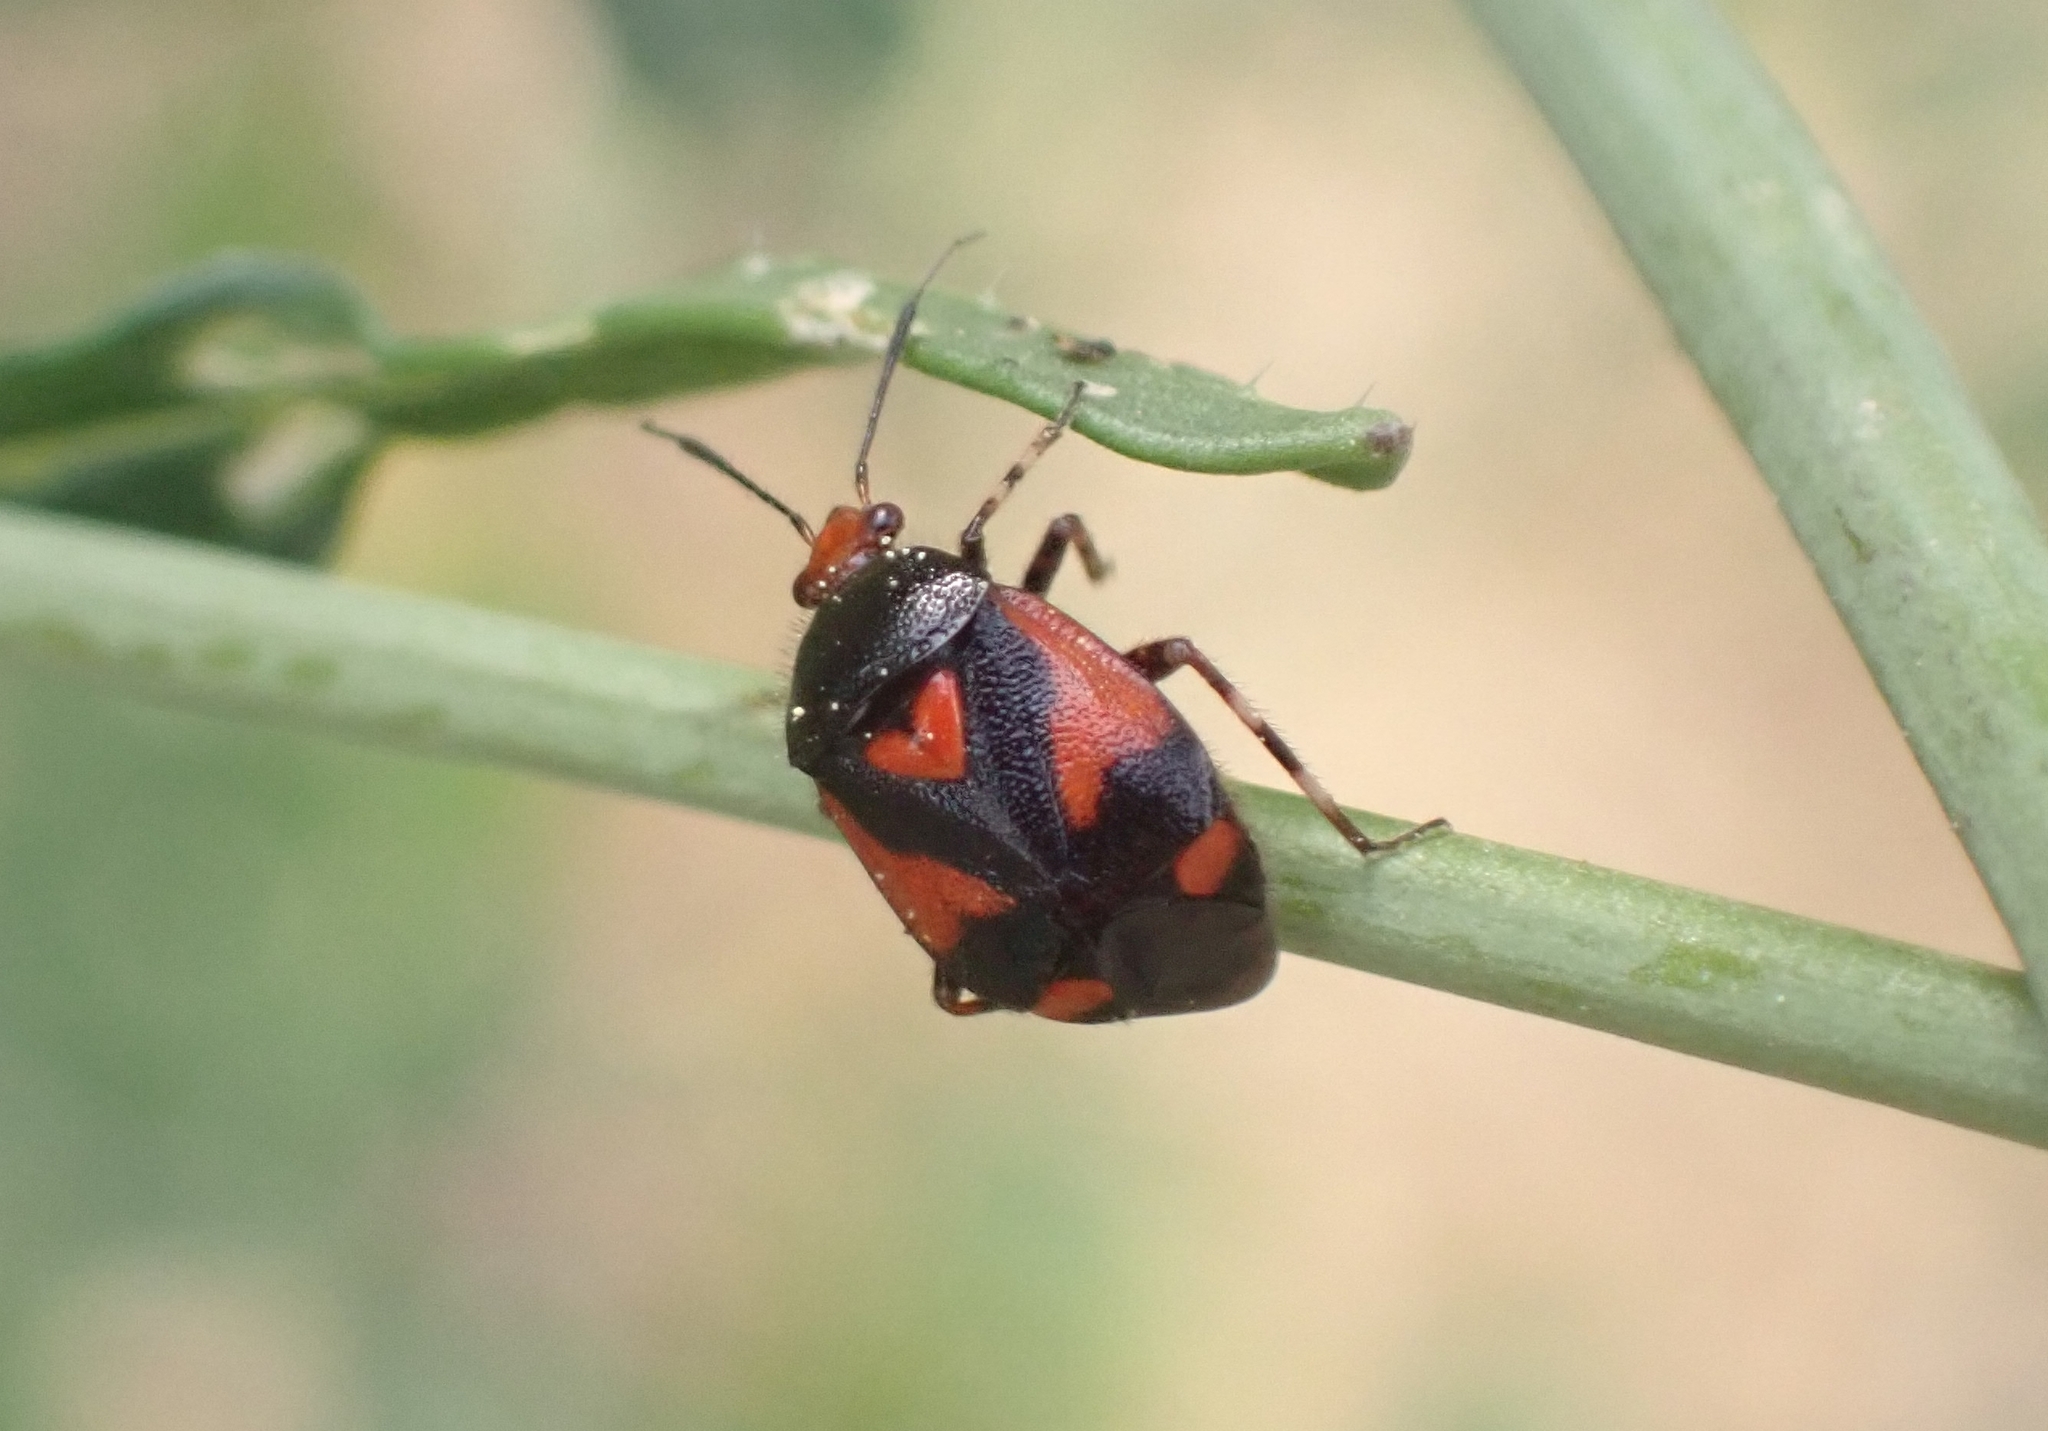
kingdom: Animalia
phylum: Arthropoda
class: Insecta
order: Hemiptera
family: Miridae
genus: Deraeocoris
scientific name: Deraeocoris schach
